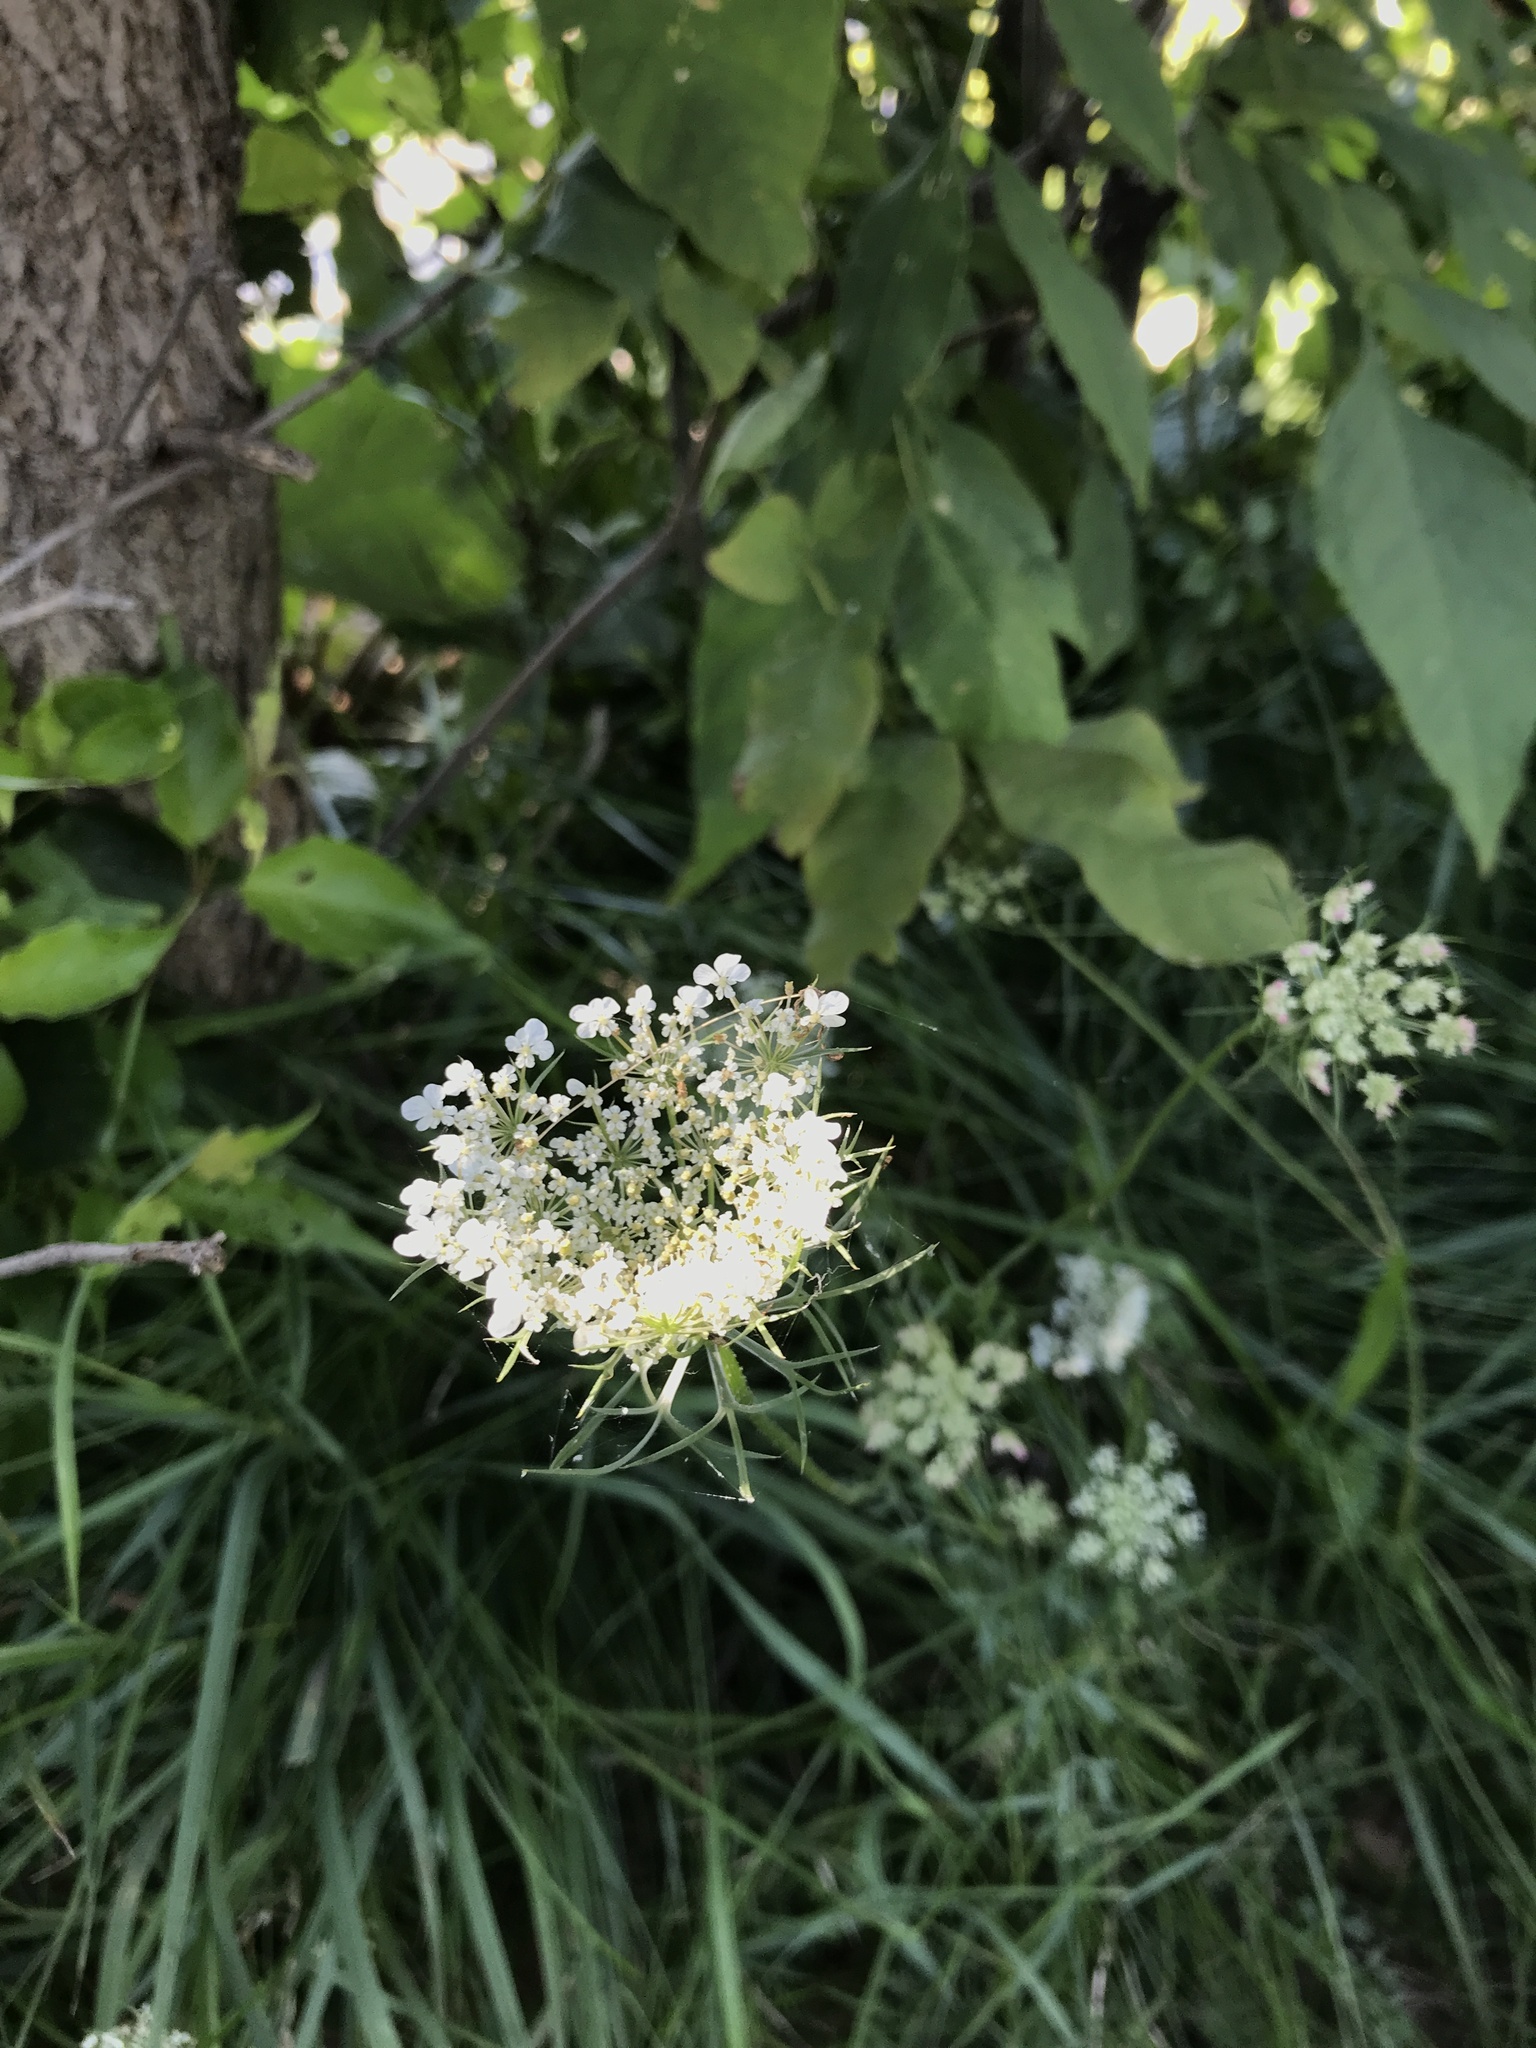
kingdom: Plantae
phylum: Tracheophyta
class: Magnoliopsida
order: Apiales
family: Apiaceae
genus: Daucus
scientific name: Daucus carota
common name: Wild carrot
